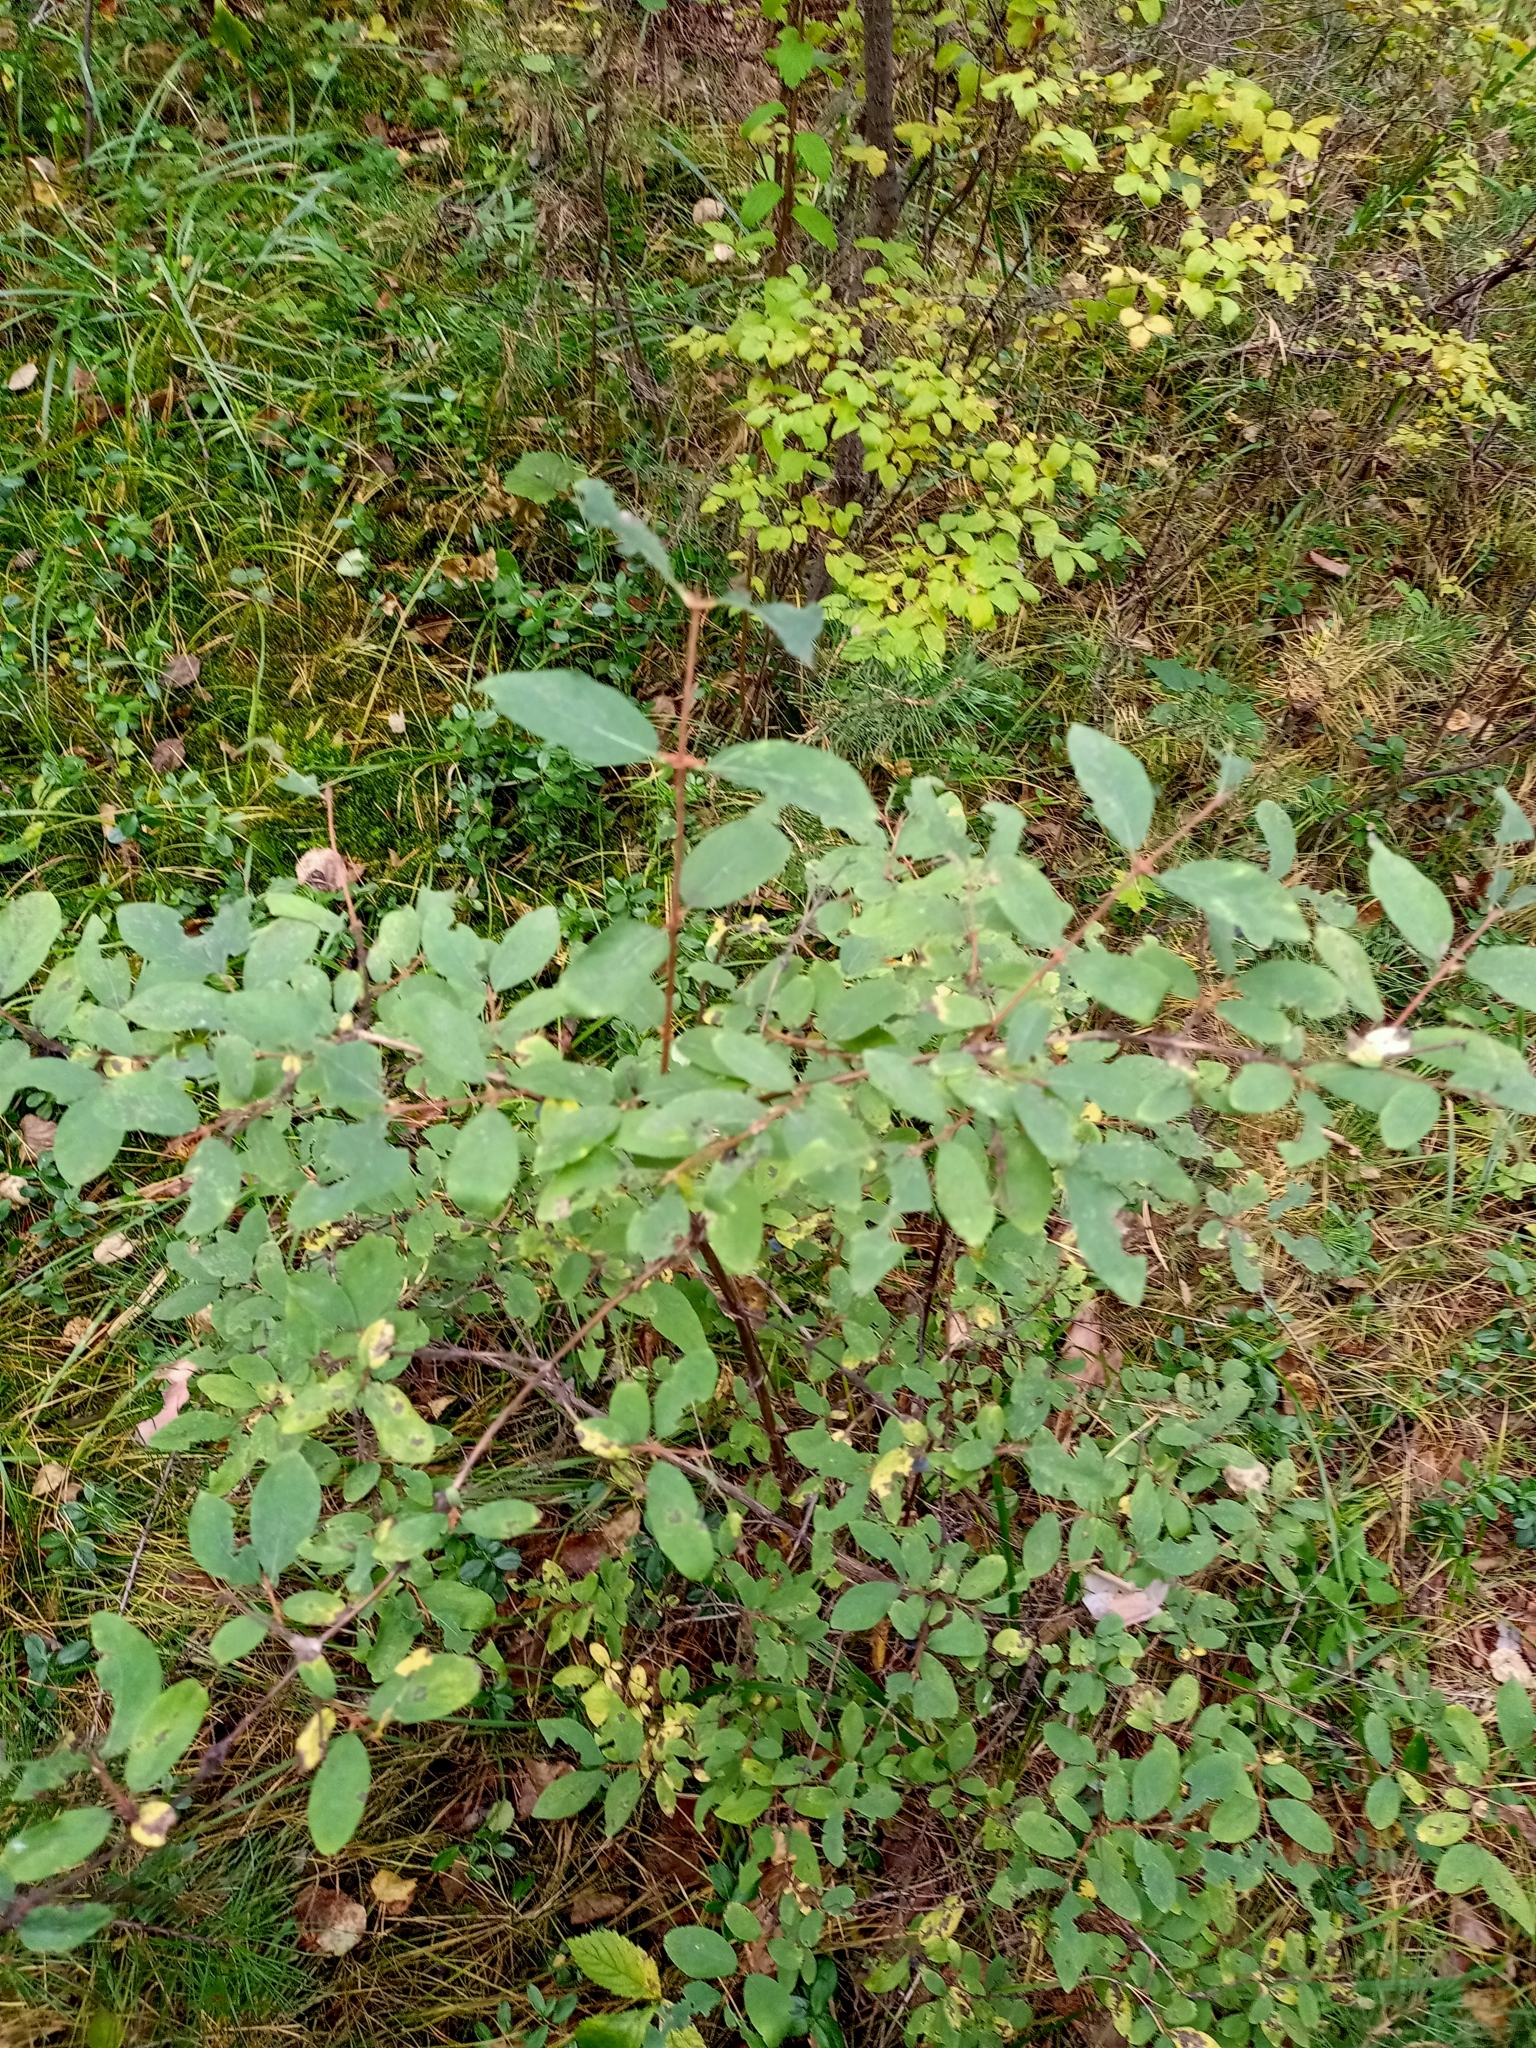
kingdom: Plantae
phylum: Tracheophyta
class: Magnoliopsida
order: Dipsacales
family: Caprifoliaceae
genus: Lonicera
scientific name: Lonicera caerulea
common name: Blue honeysuckle
